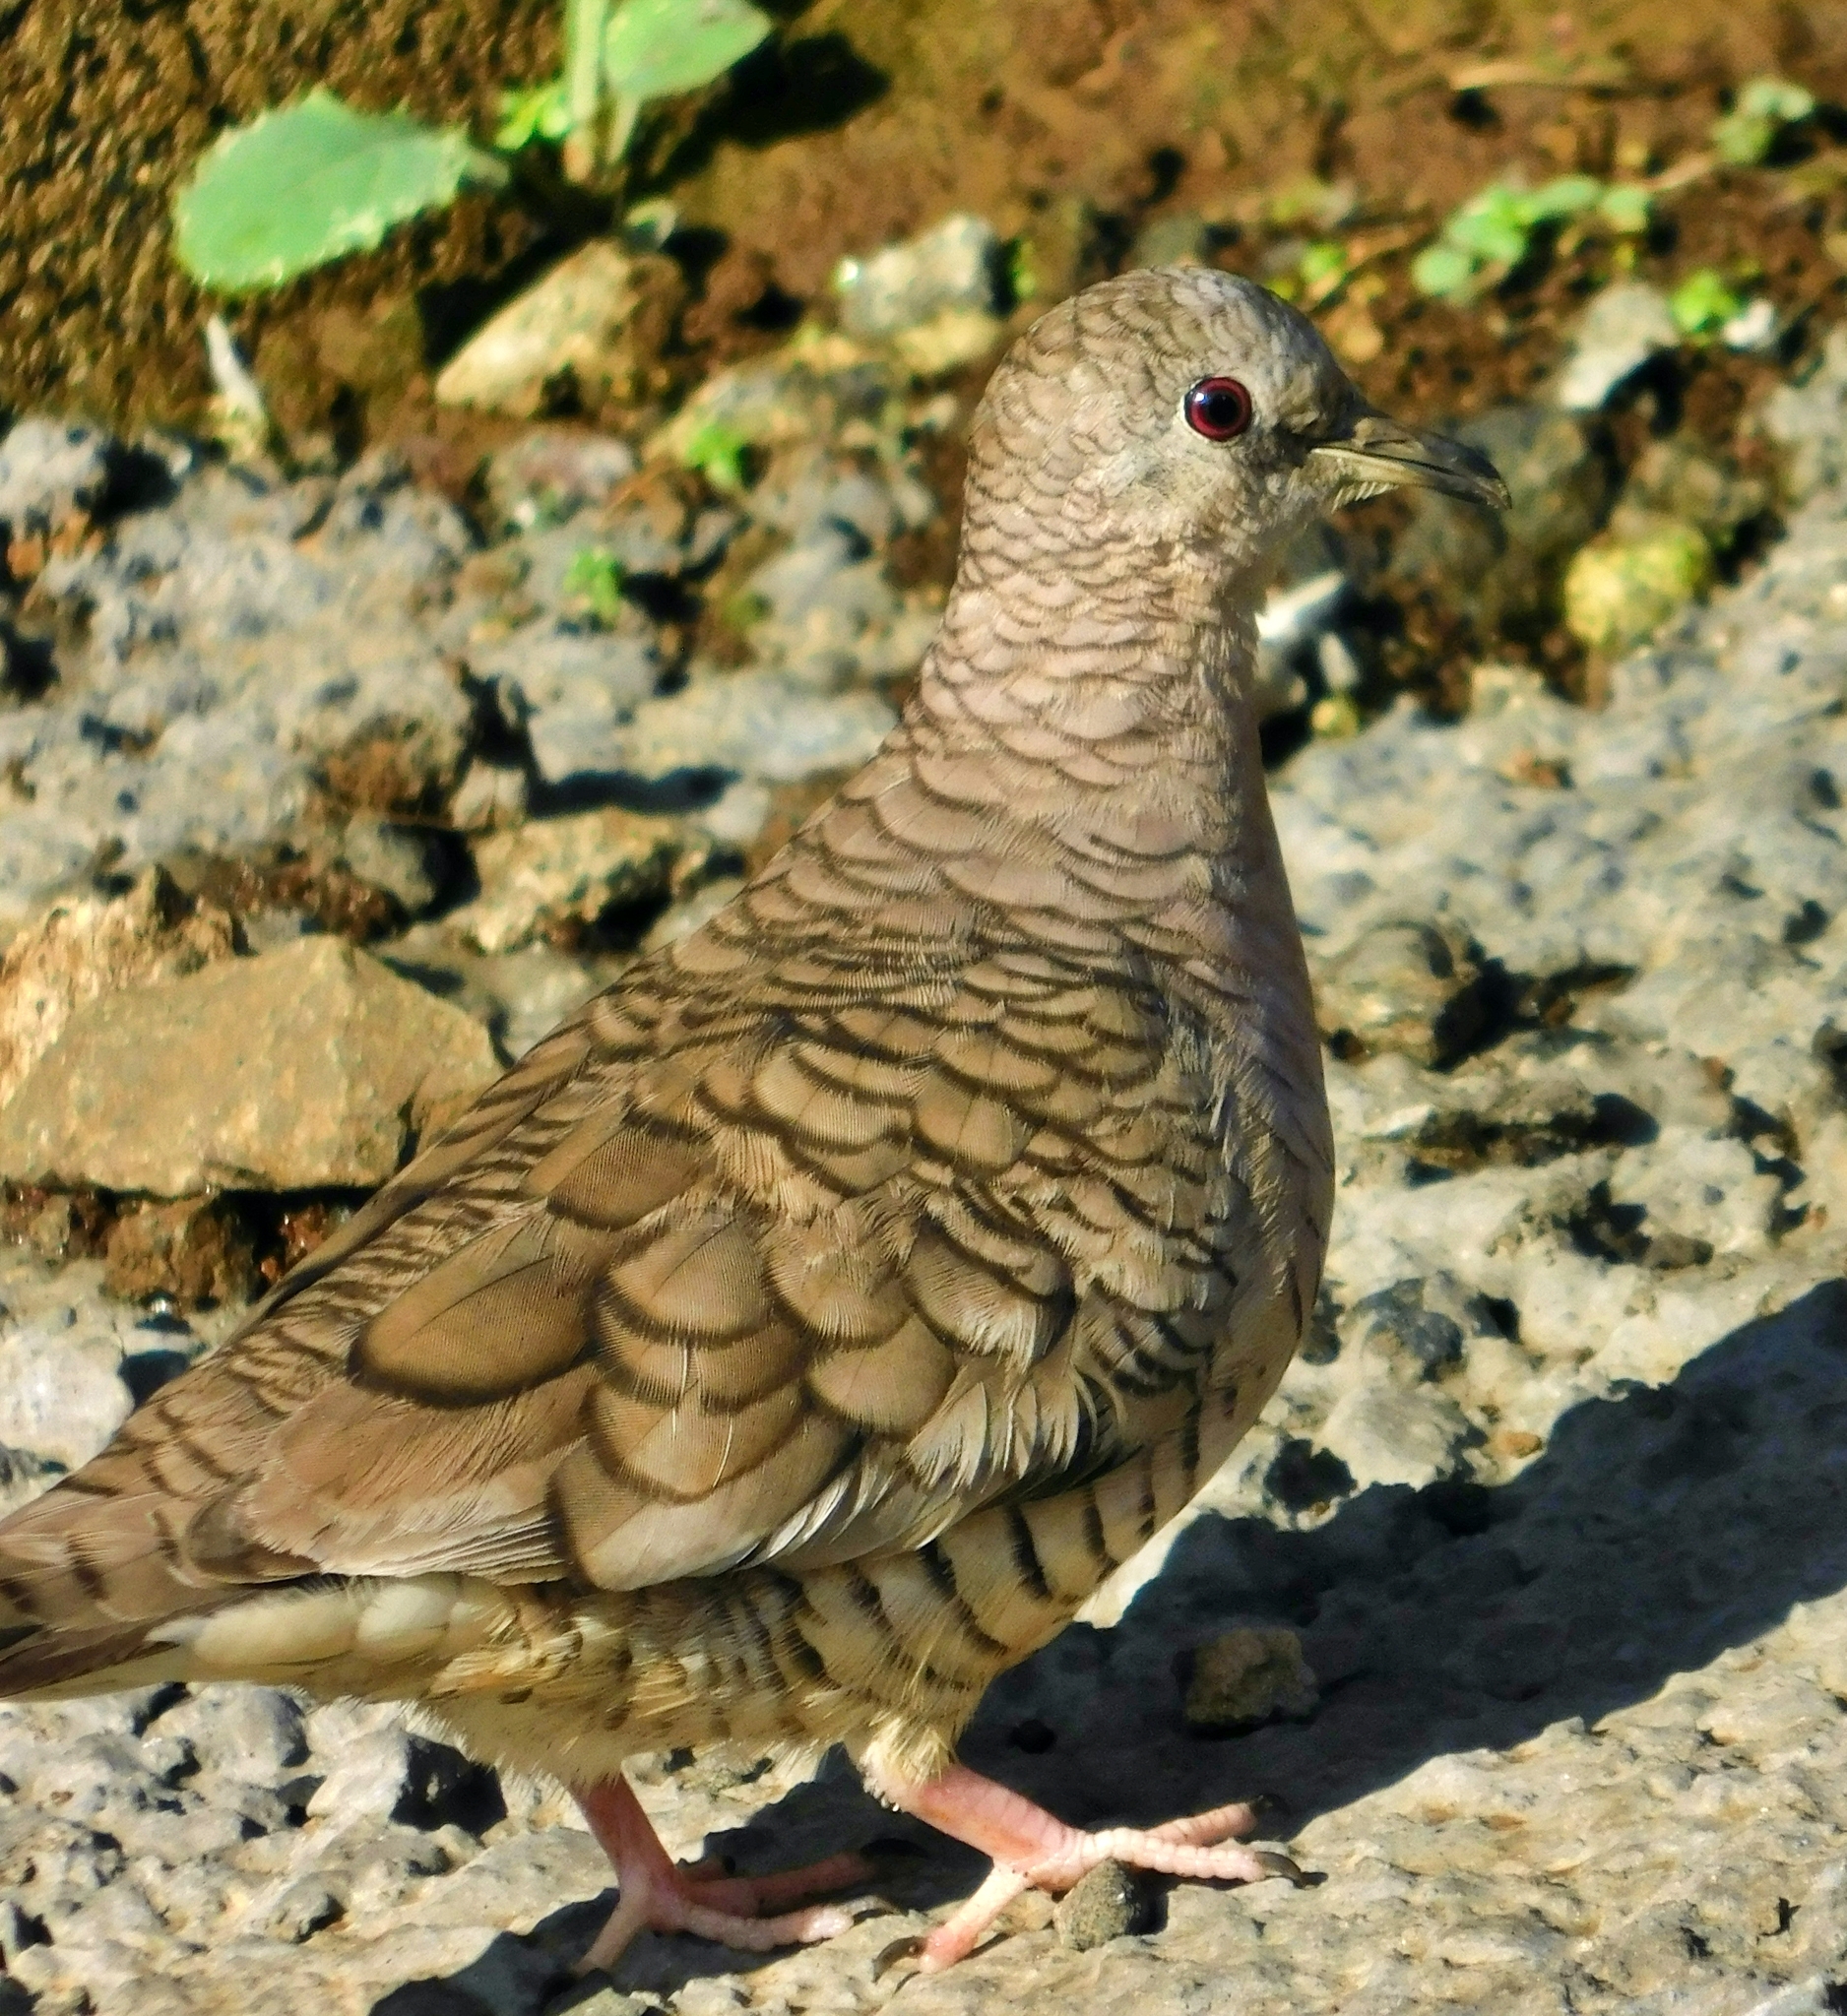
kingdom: Animalia
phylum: Chordata
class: Aves
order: Columbiformes
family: Columbidae
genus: Columbina
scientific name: Columbina inca
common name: Inca dove
